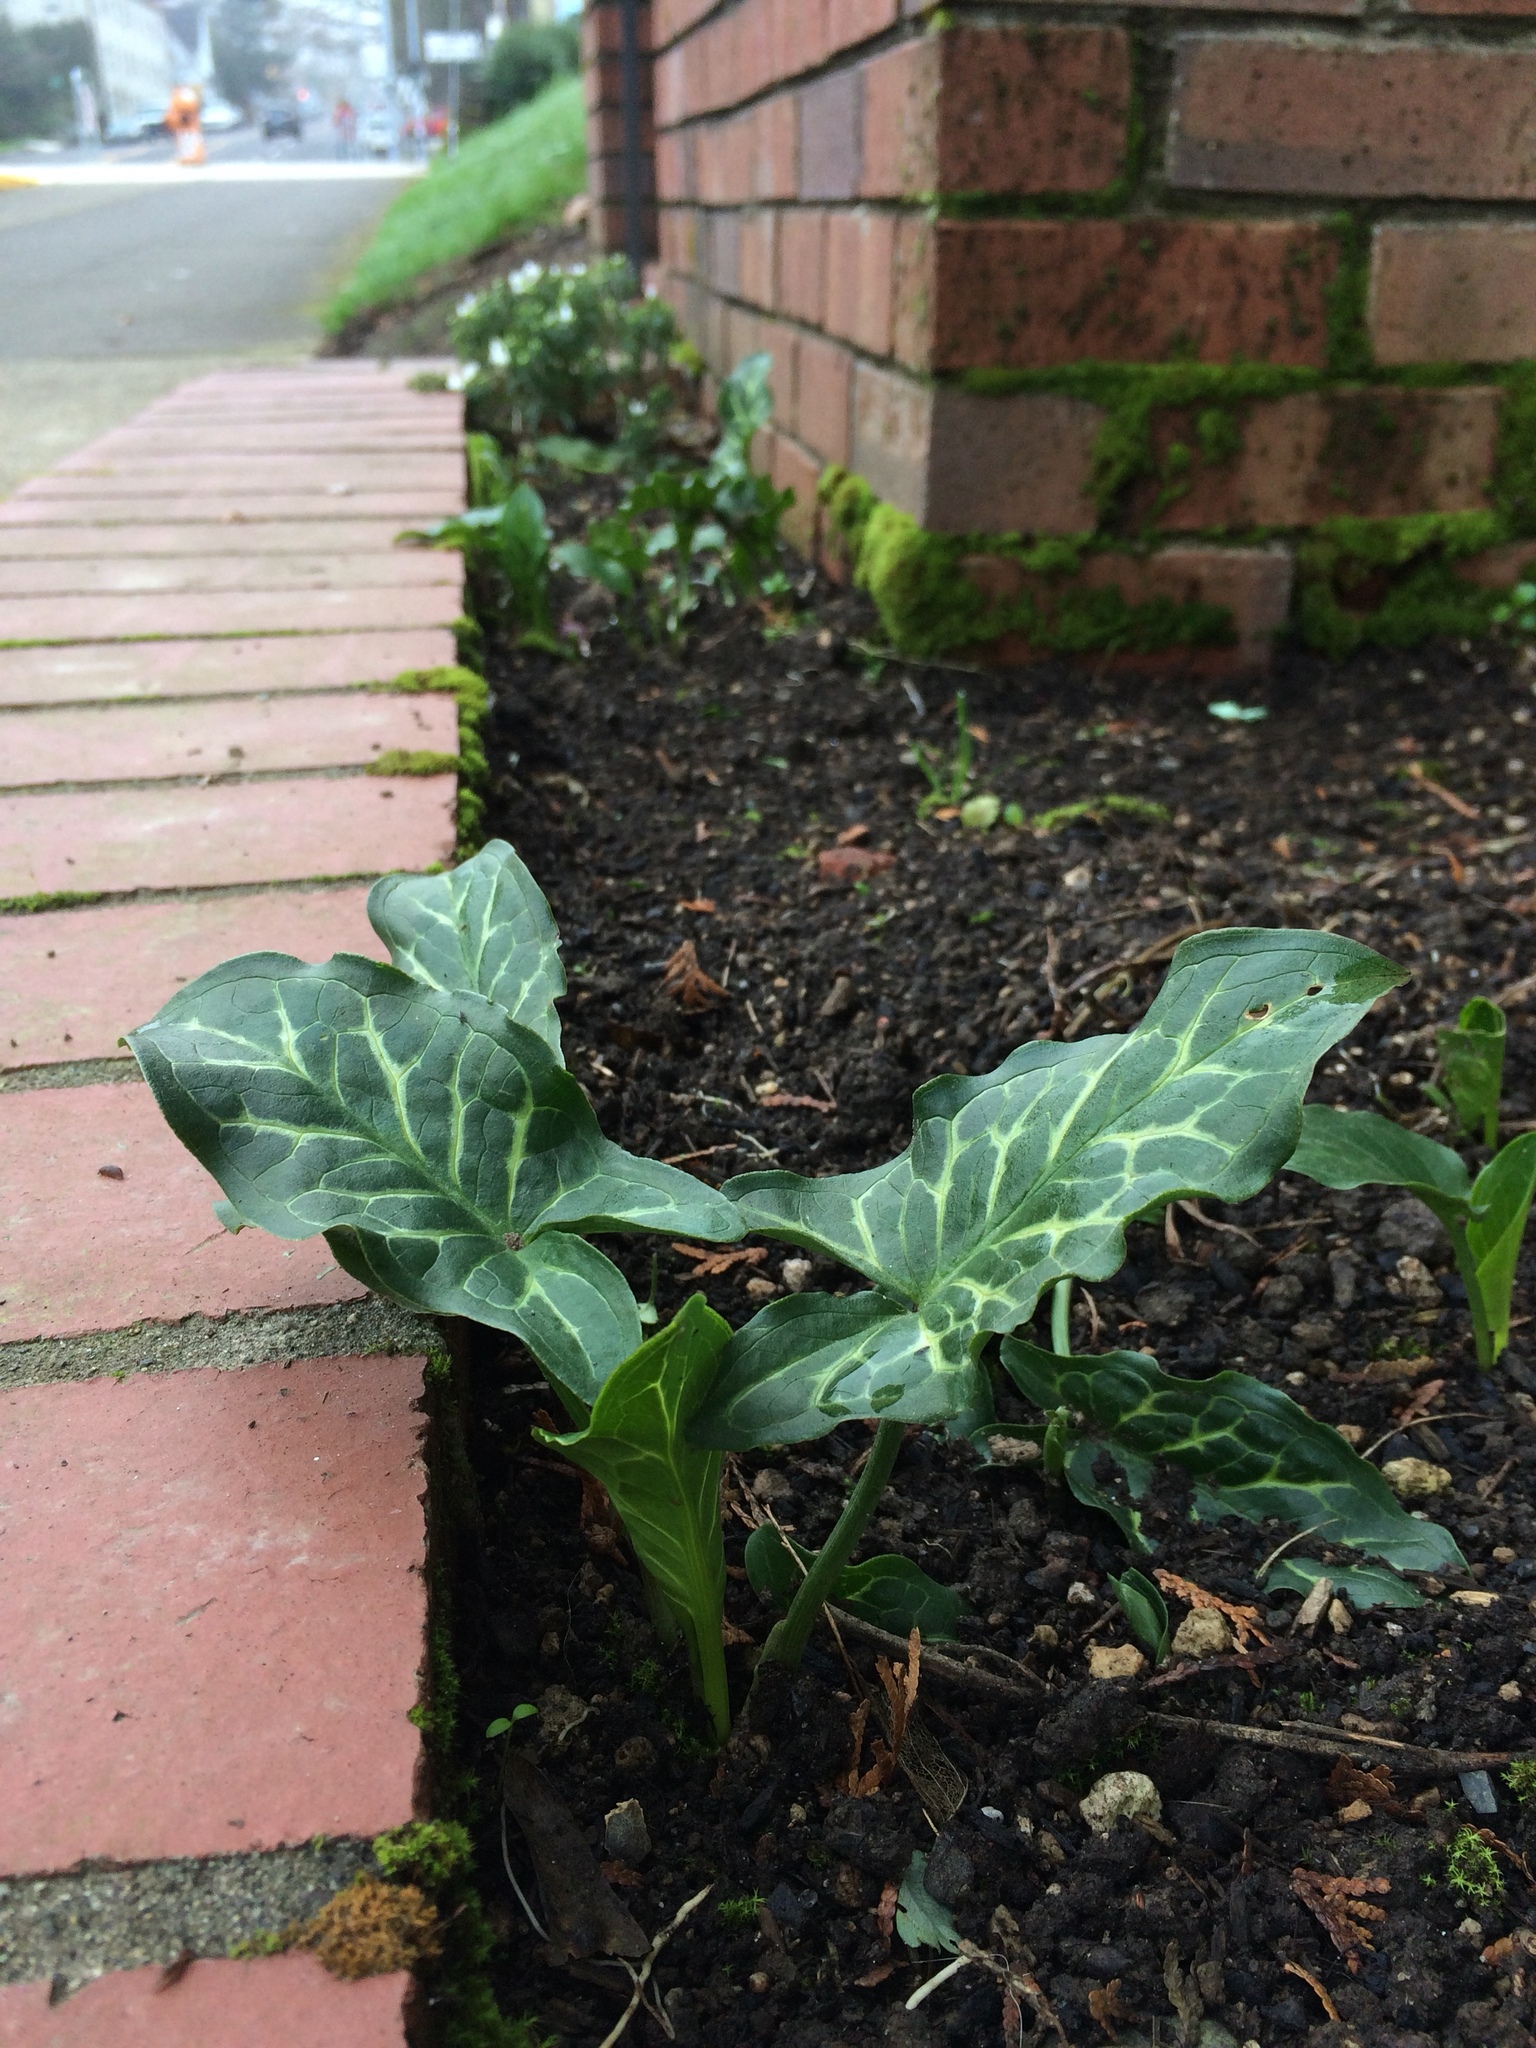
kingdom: Plantae
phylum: Tracheophyta
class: Liliopsida
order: Alismatales
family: Araceae
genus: Arum
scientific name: Arum italicum
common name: Italian lords-and-ladies
